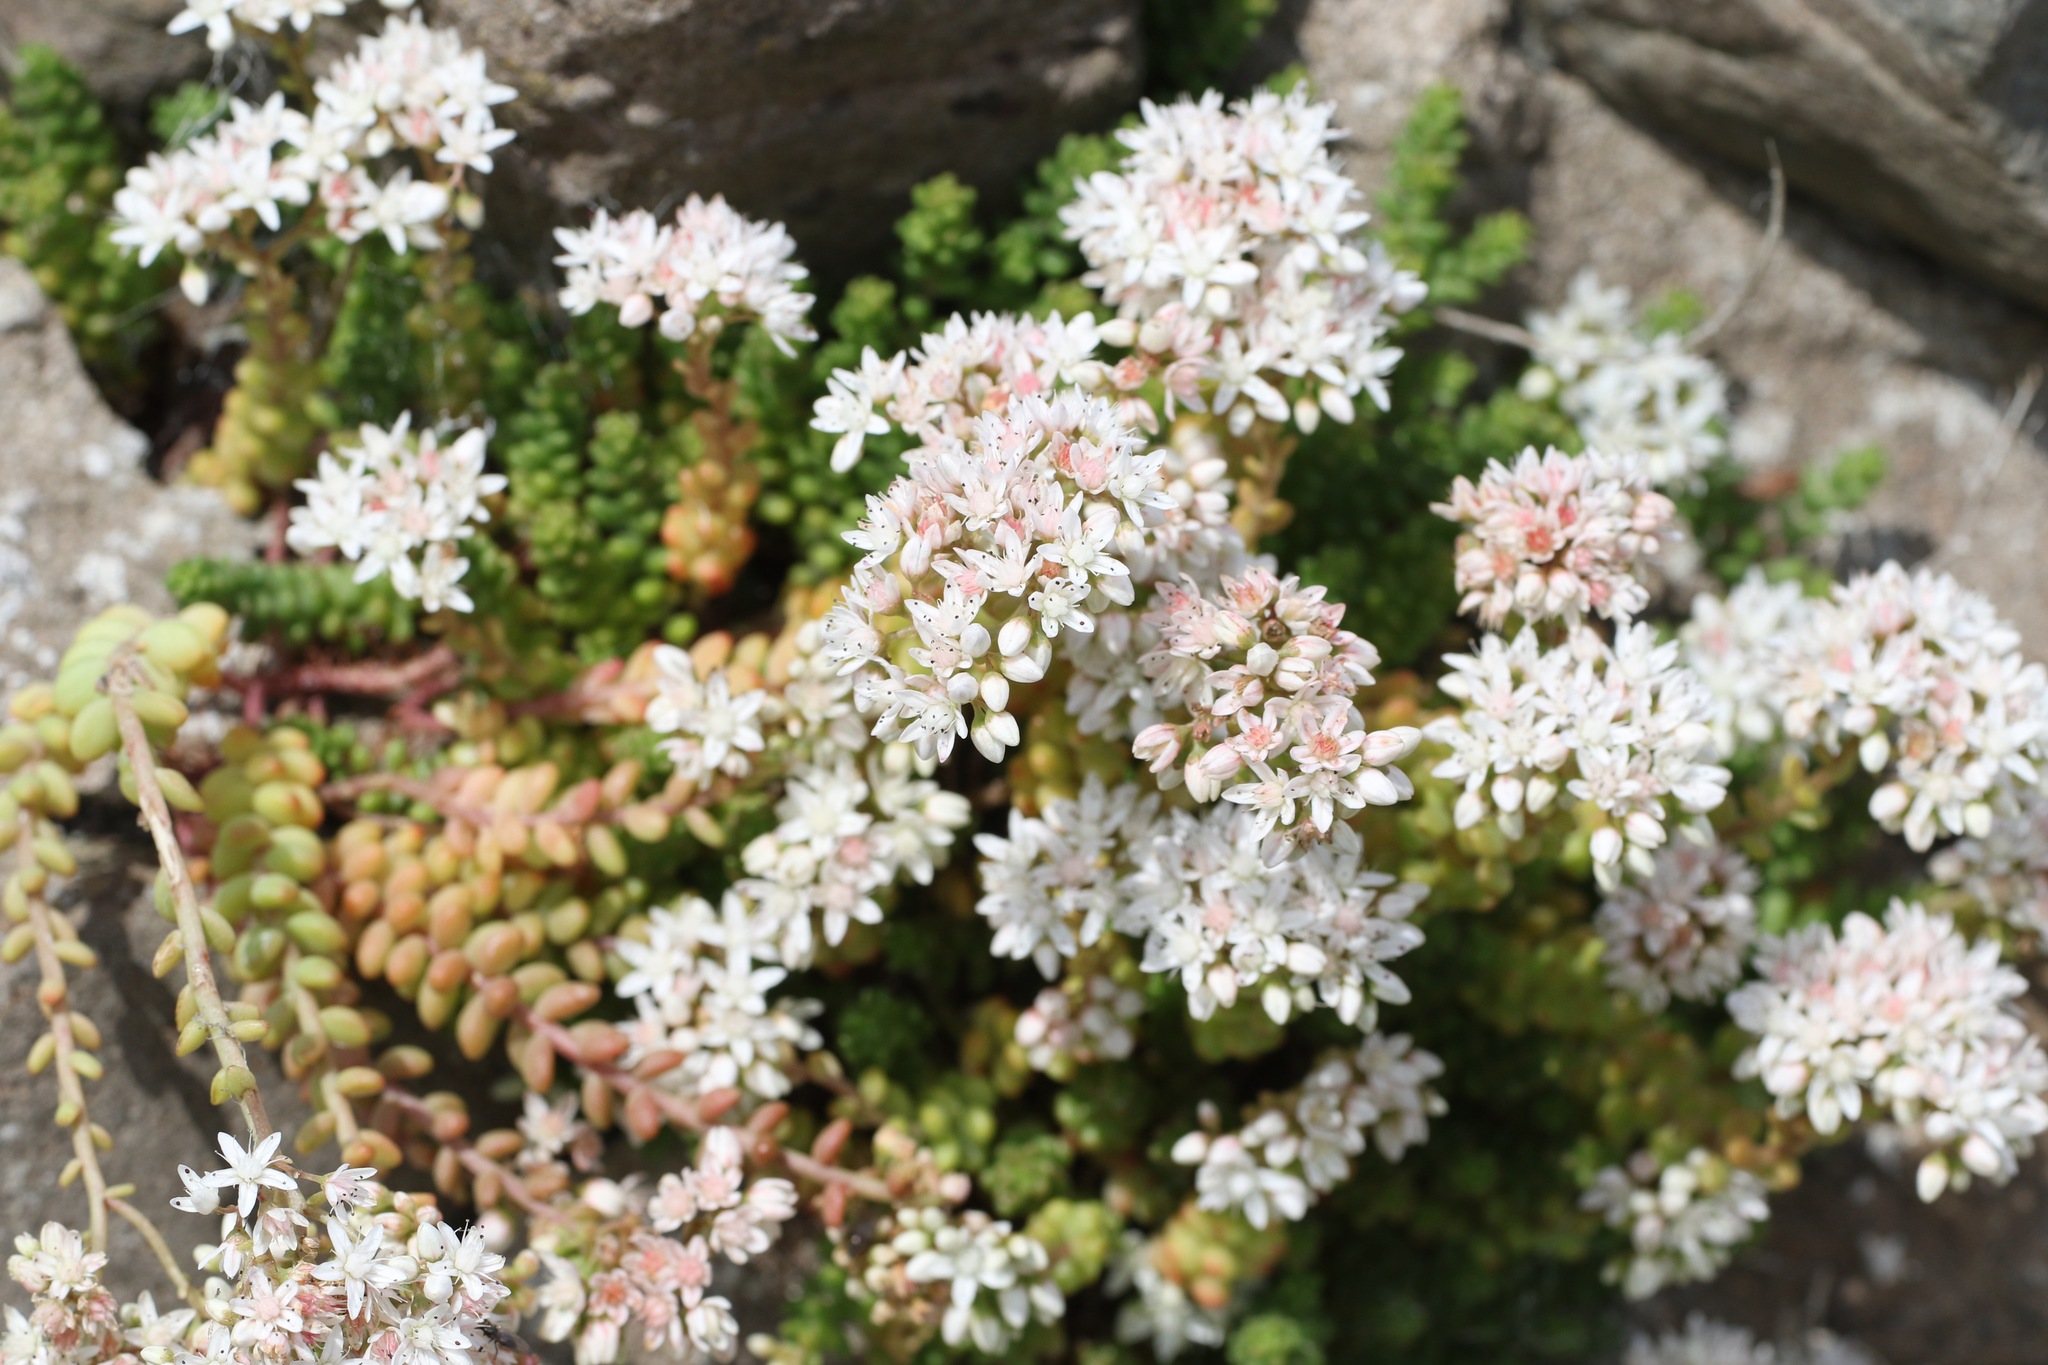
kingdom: Plantae
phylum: Tracheophyta
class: Magnoliopsida
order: Saxifragales
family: Crassulaceae
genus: Sedum
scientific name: Sedum album
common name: White stonecrop
